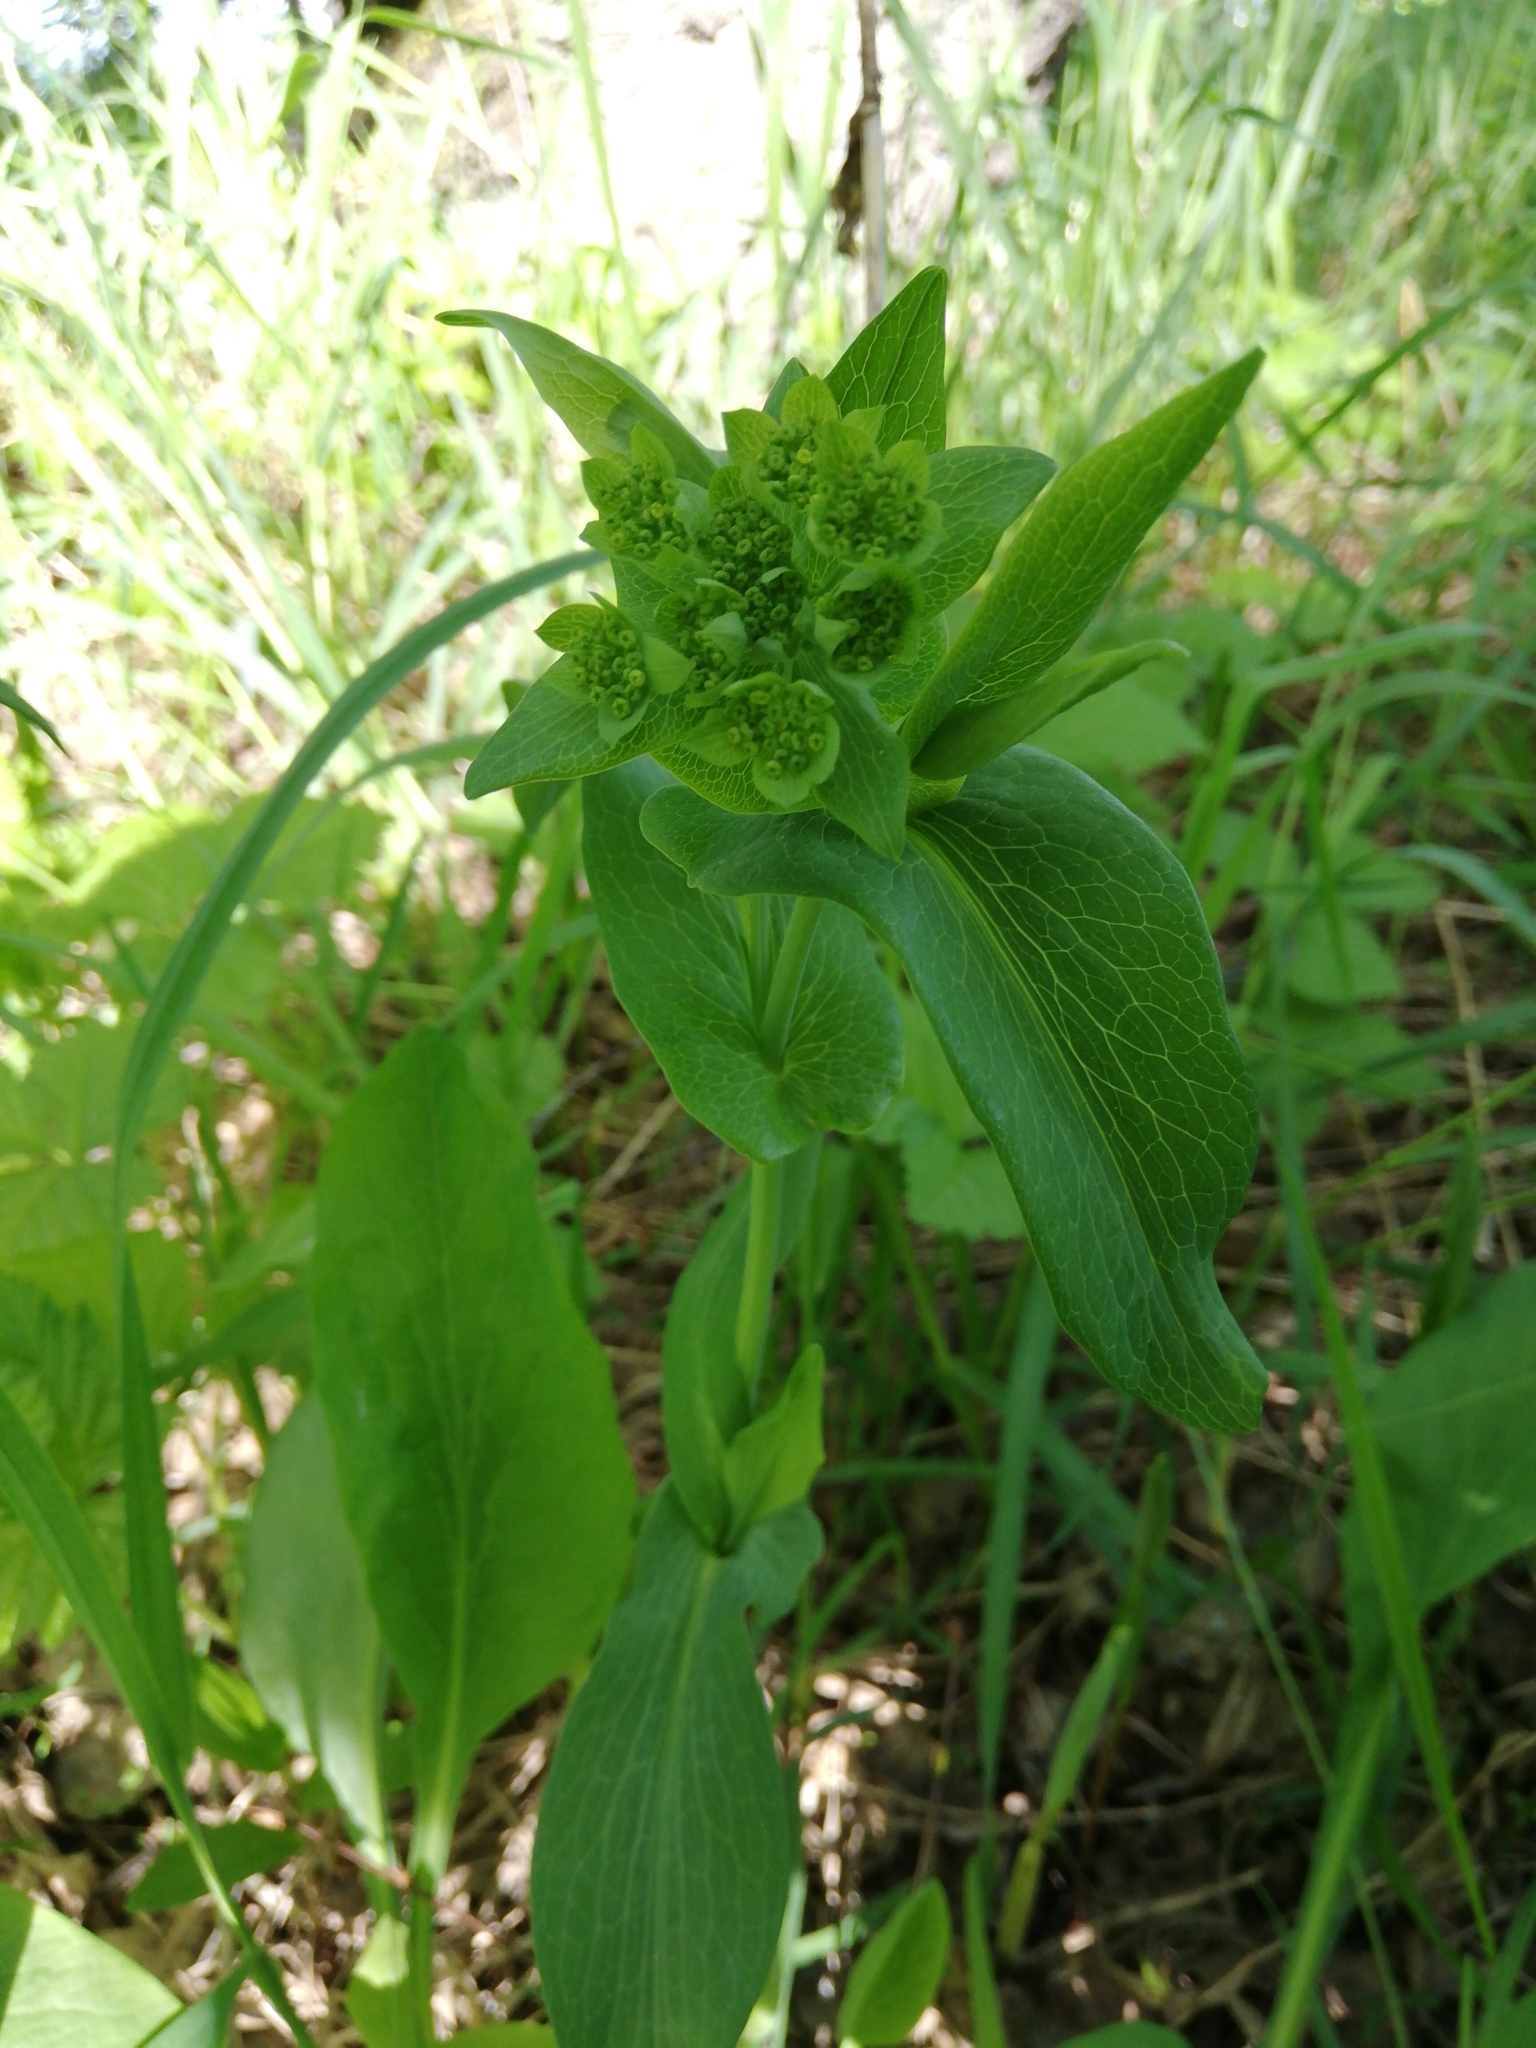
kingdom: Plantae
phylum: Tracheophyta
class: Magnoliopsida
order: Apiales
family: Apiaceae
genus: Bupleurum
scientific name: Bupleurum aureum
